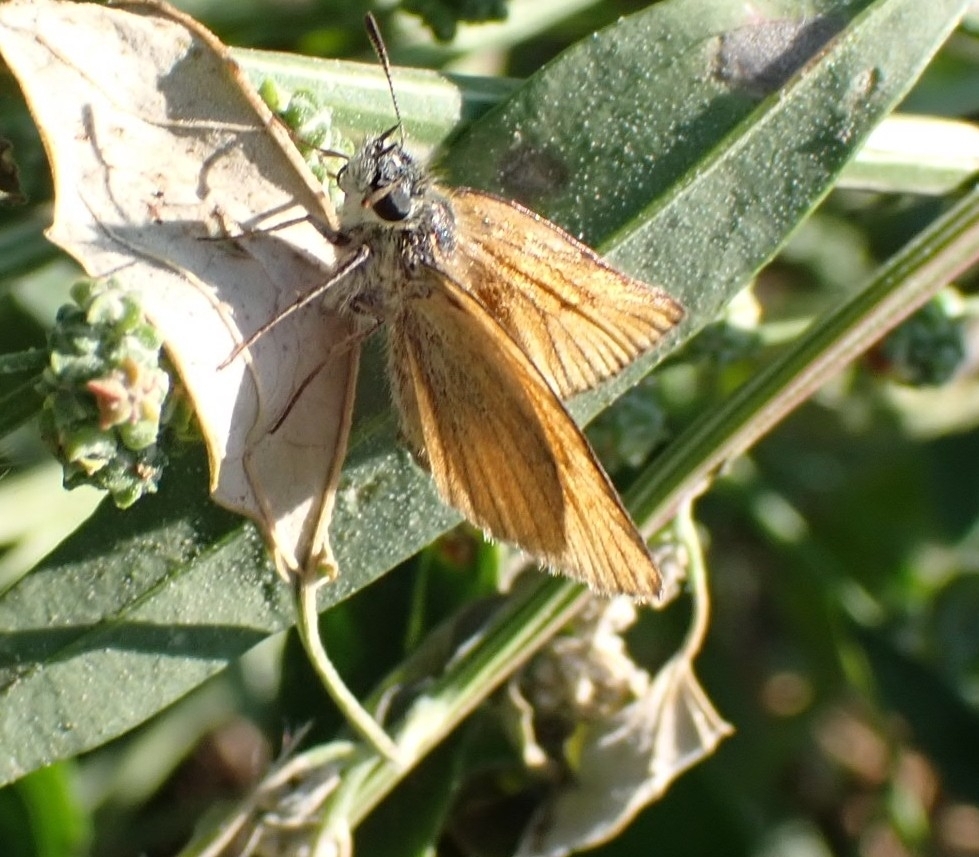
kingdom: Animalia
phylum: Arthropoda
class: Insecta
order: Lepidoptera
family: Hesperiidae
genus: Thymelicus
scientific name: Thymelicus lineola
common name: Essex skipper
